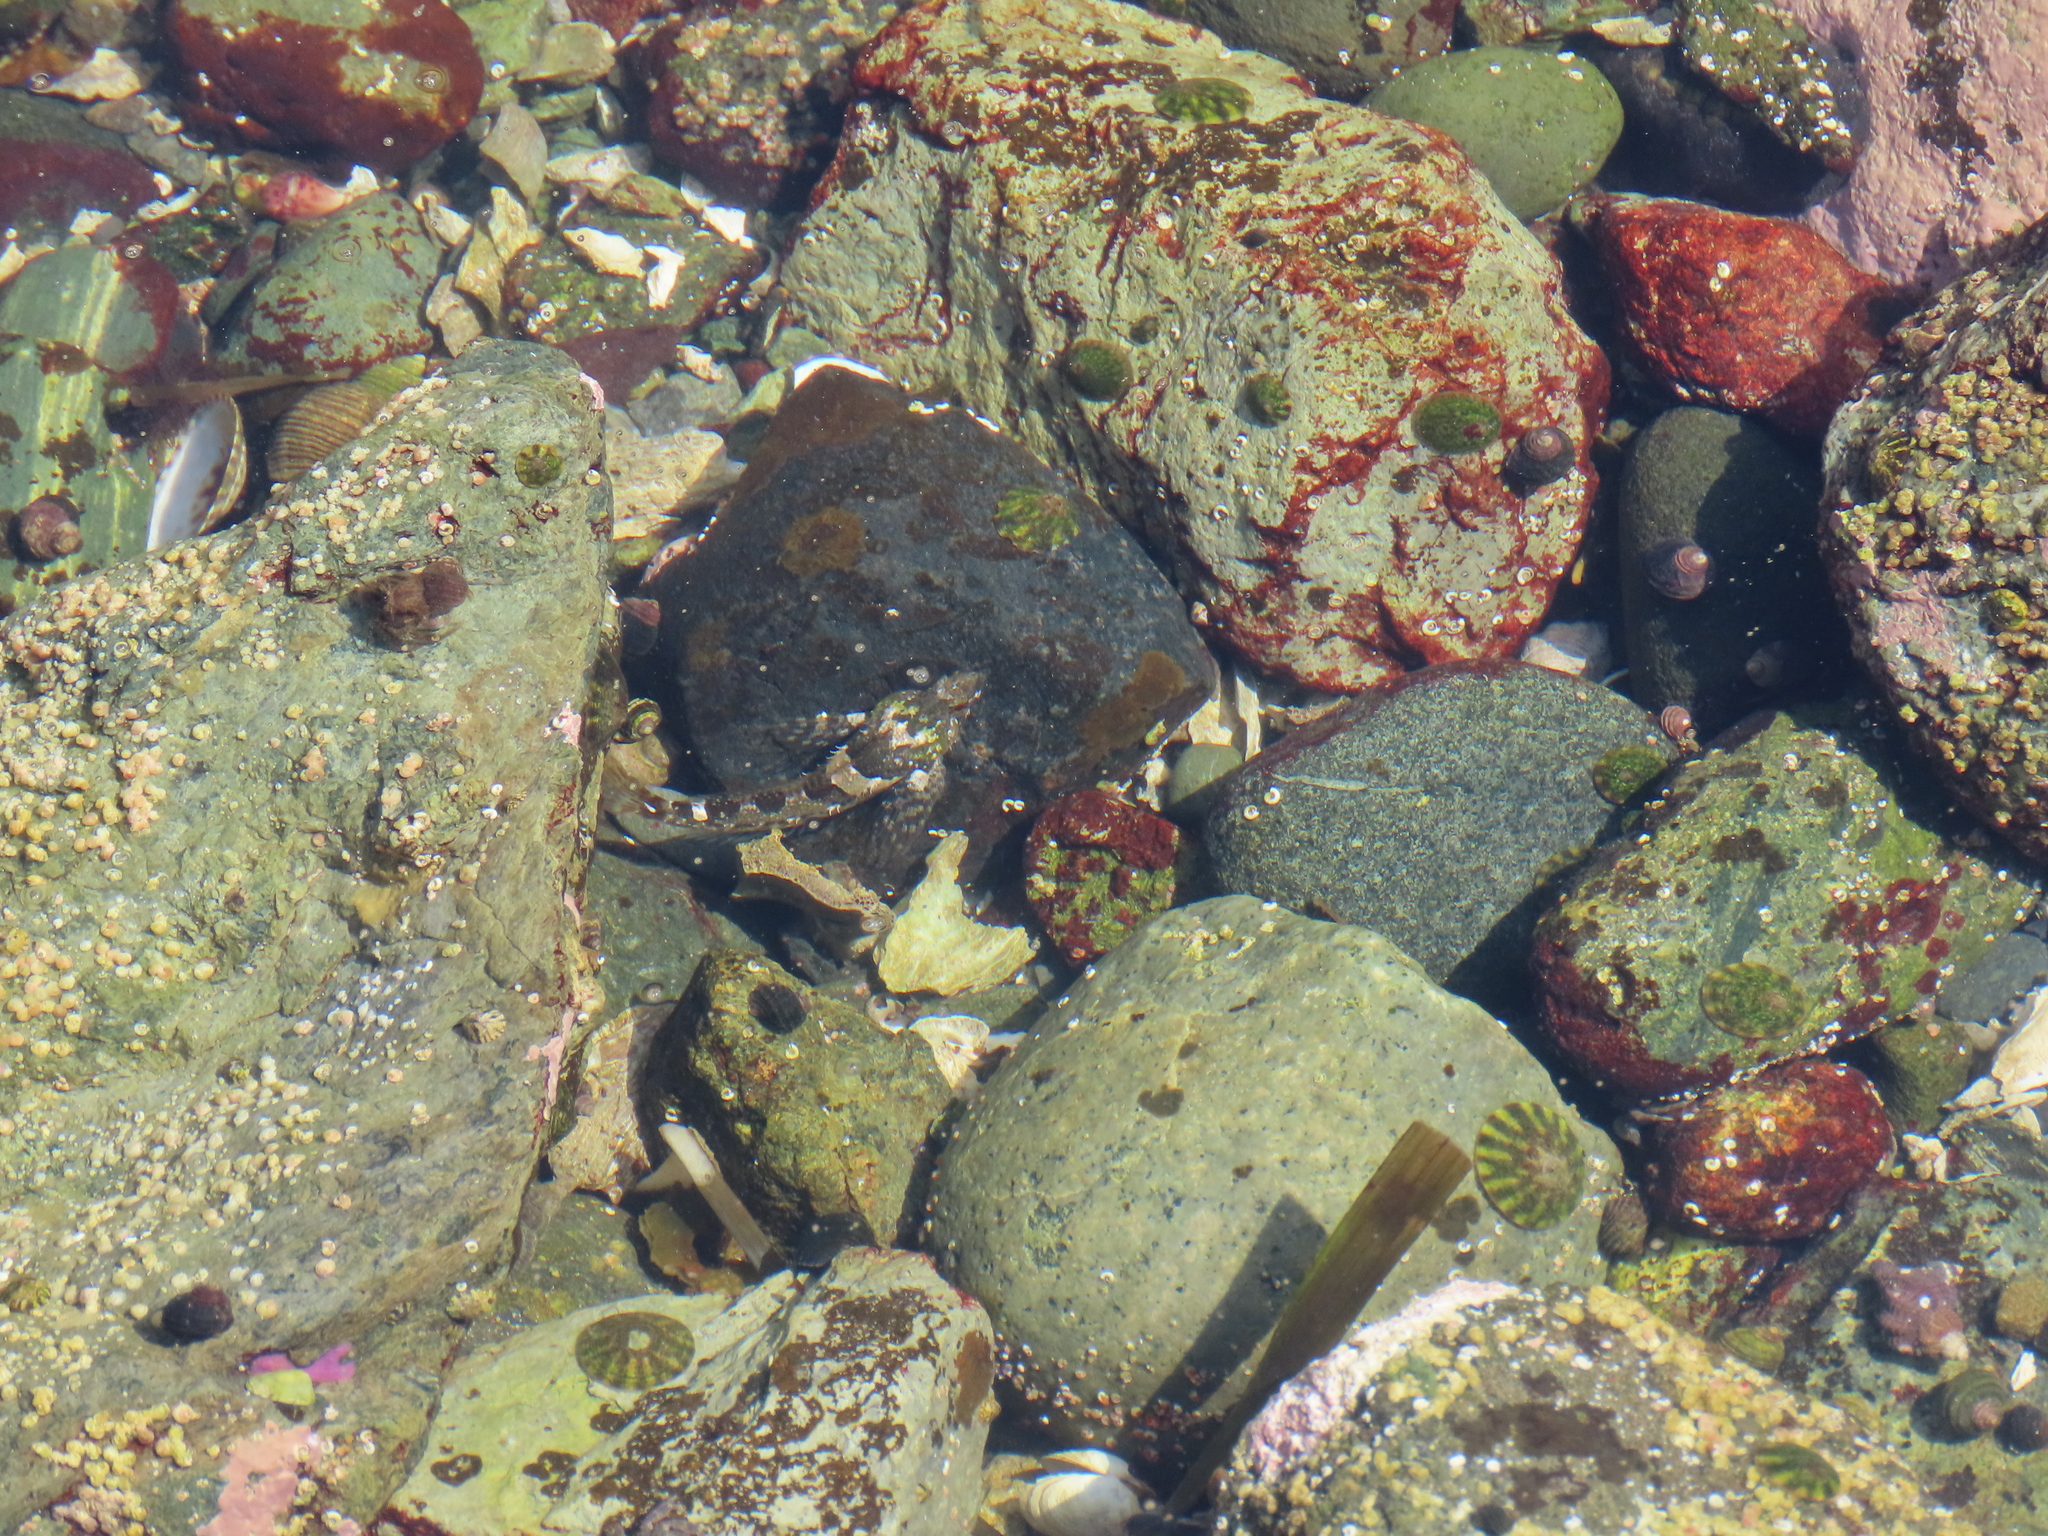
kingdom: Animalia
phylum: Chordata
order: Scorpaeniformes
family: Cottidae
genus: Oligocottus
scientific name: Oligocottus maculosus
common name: Tidepool sculpin
